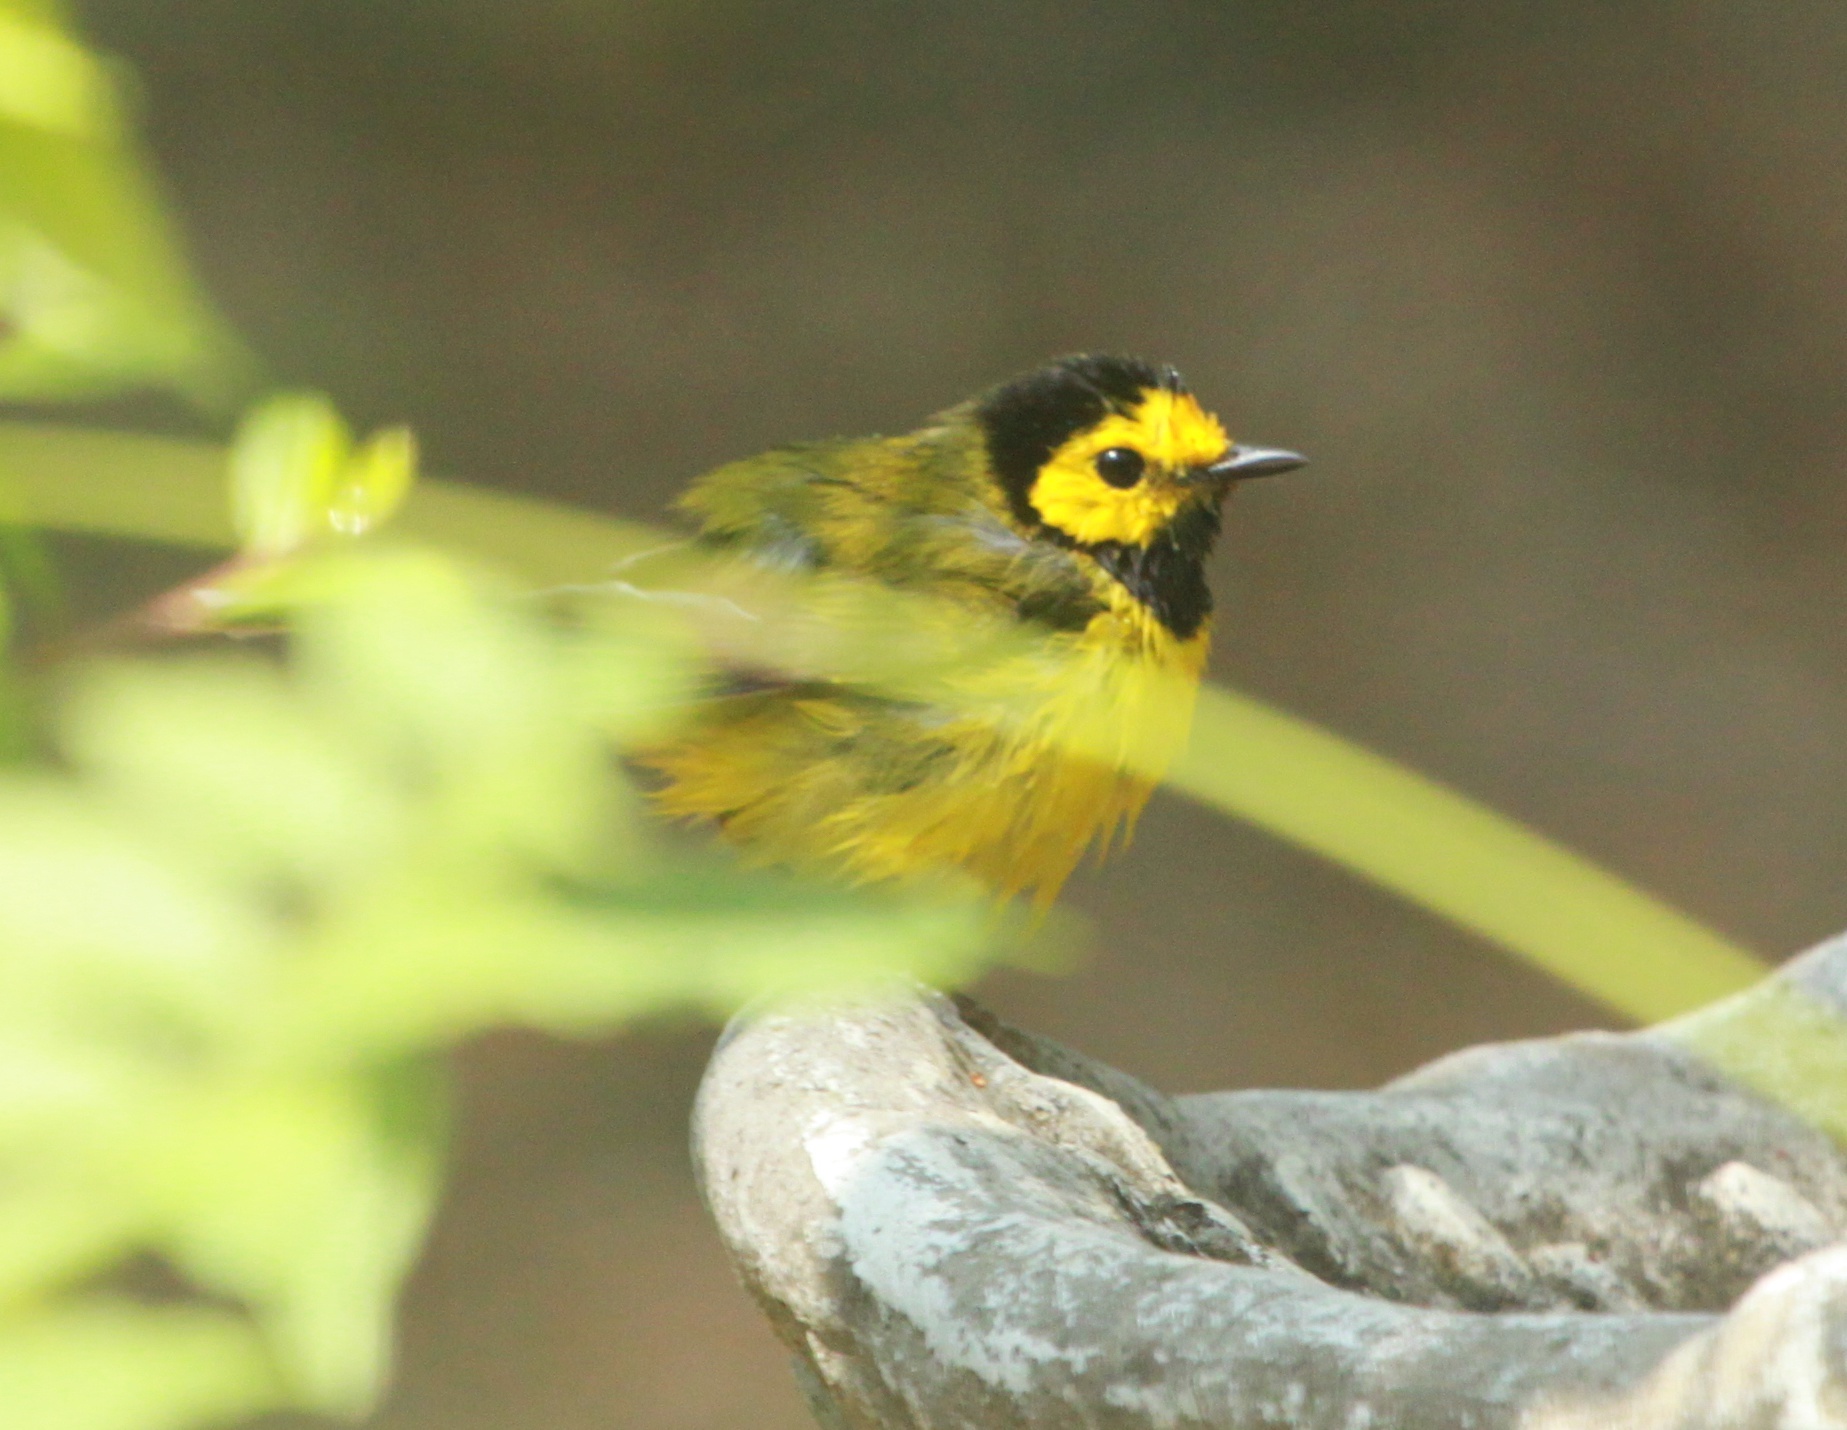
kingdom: Animalia
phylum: Chordata
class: Aves
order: Passeriformes
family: Parulidae
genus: Setophaga
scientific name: Setophaga citrina
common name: Hooded warbler
